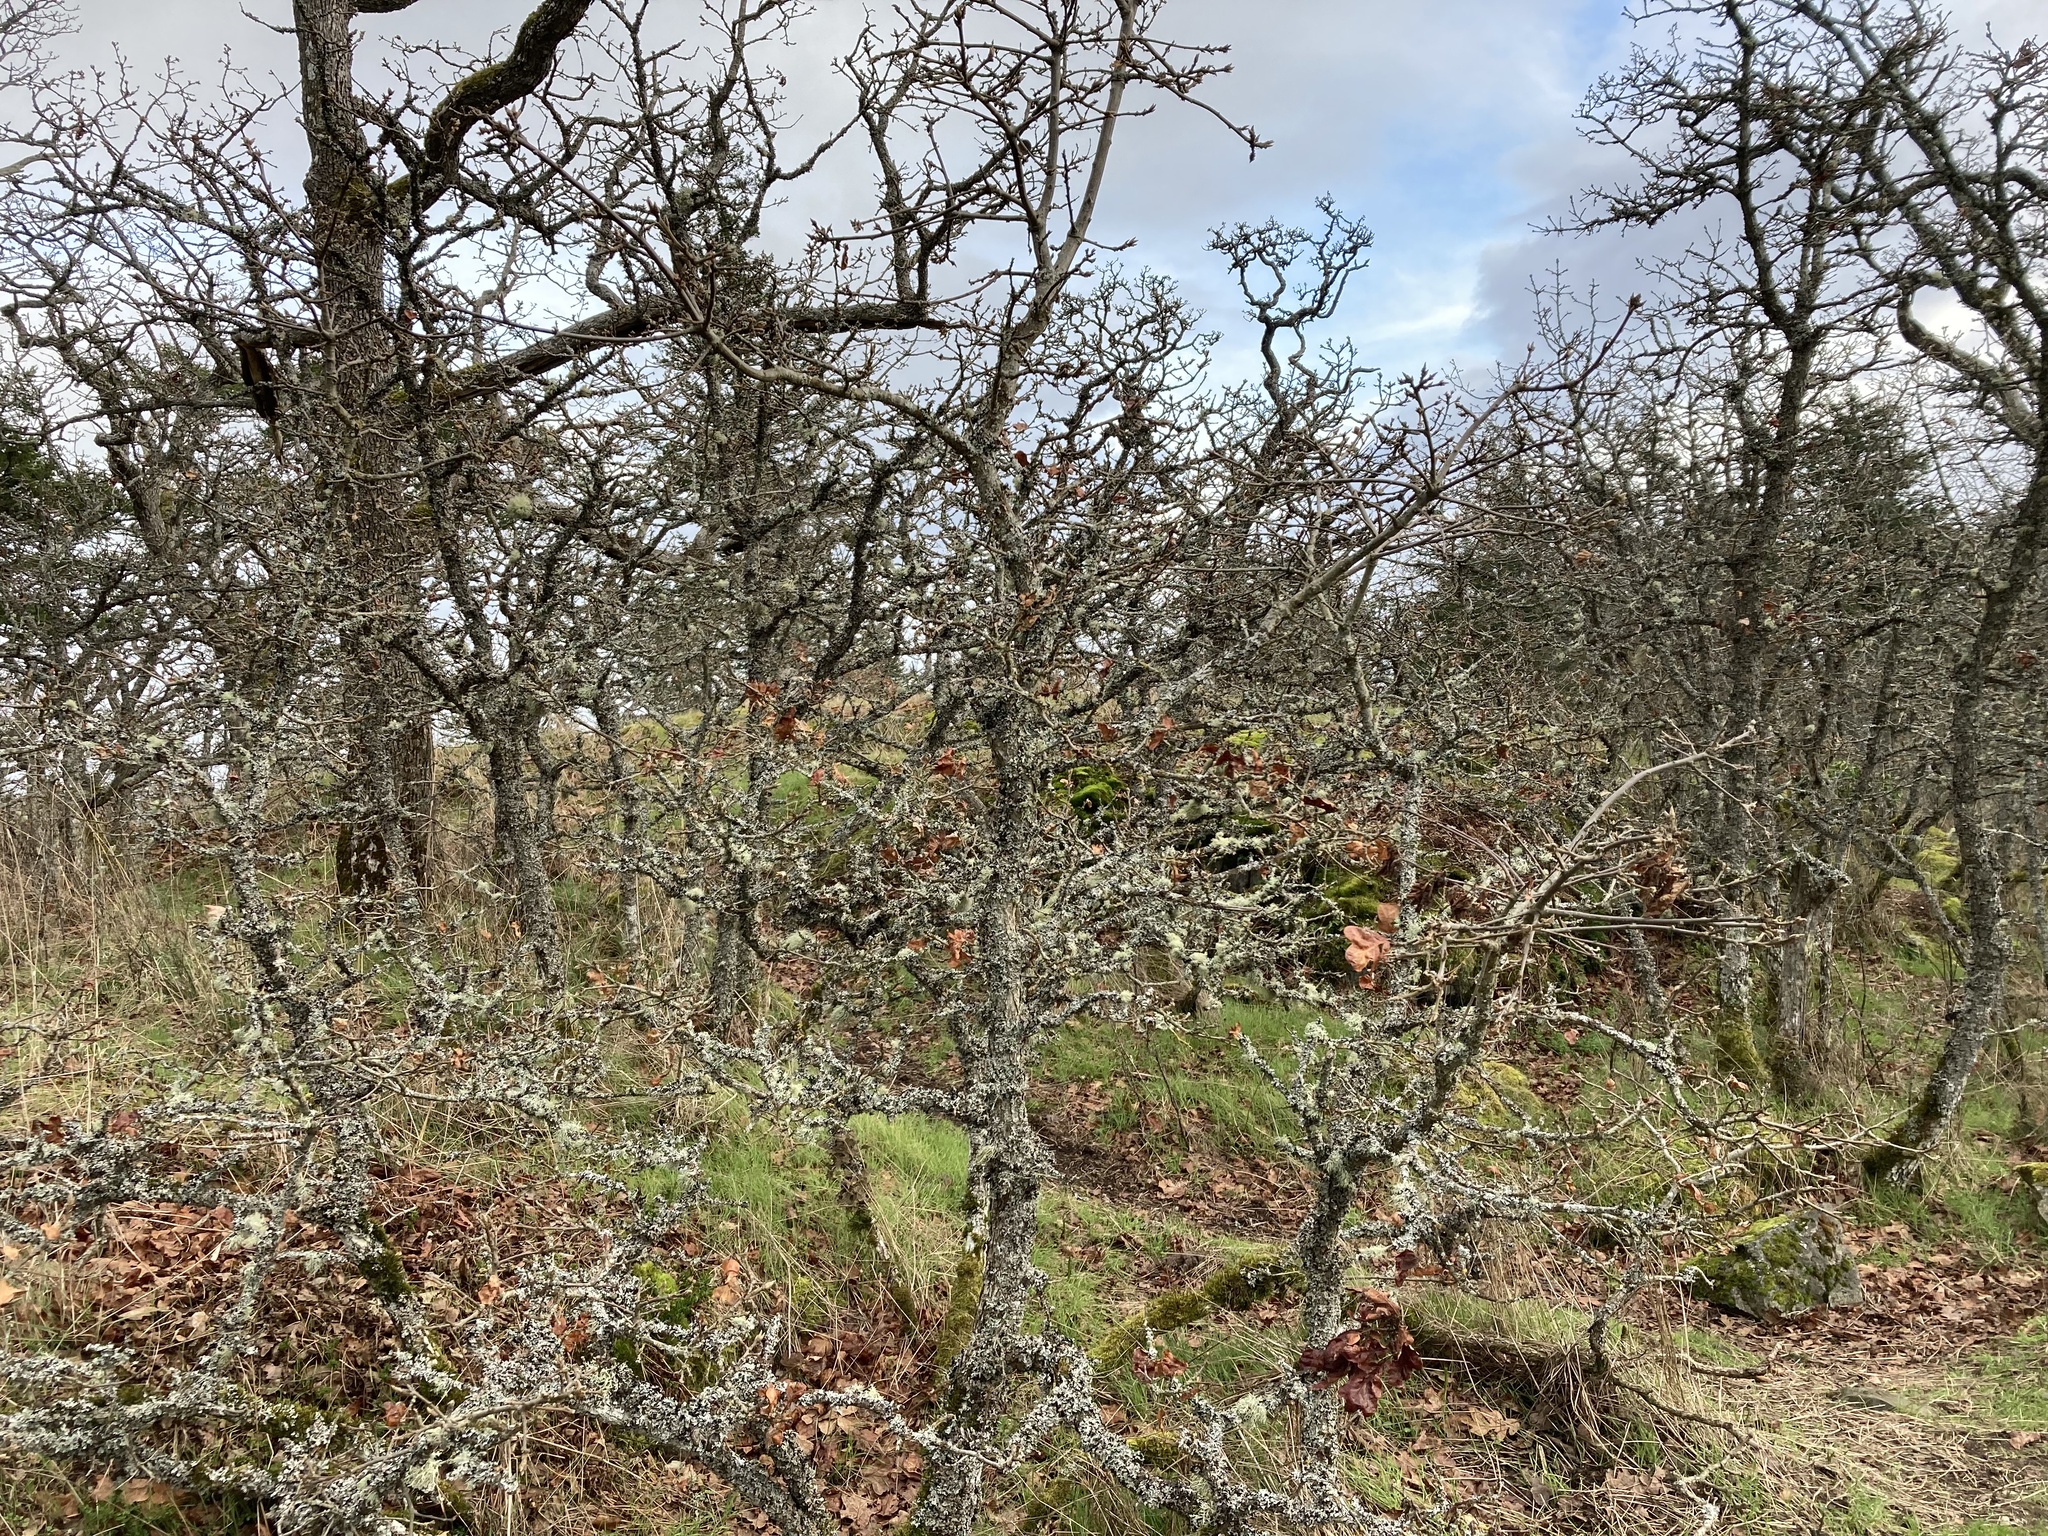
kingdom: Plantae
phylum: Tracheophyta
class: Magnoliopsida
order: Fagales
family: Fagaceae
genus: Quercus
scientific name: Quercus garryana
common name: Garry oak
